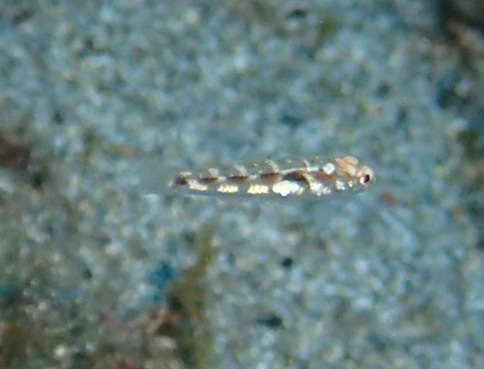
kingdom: Animalia
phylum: Chordata
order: Perciformes
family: Gobiidae
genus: Pomatoschistus
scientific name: Pomatoschistus pictus
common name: Painted goby
